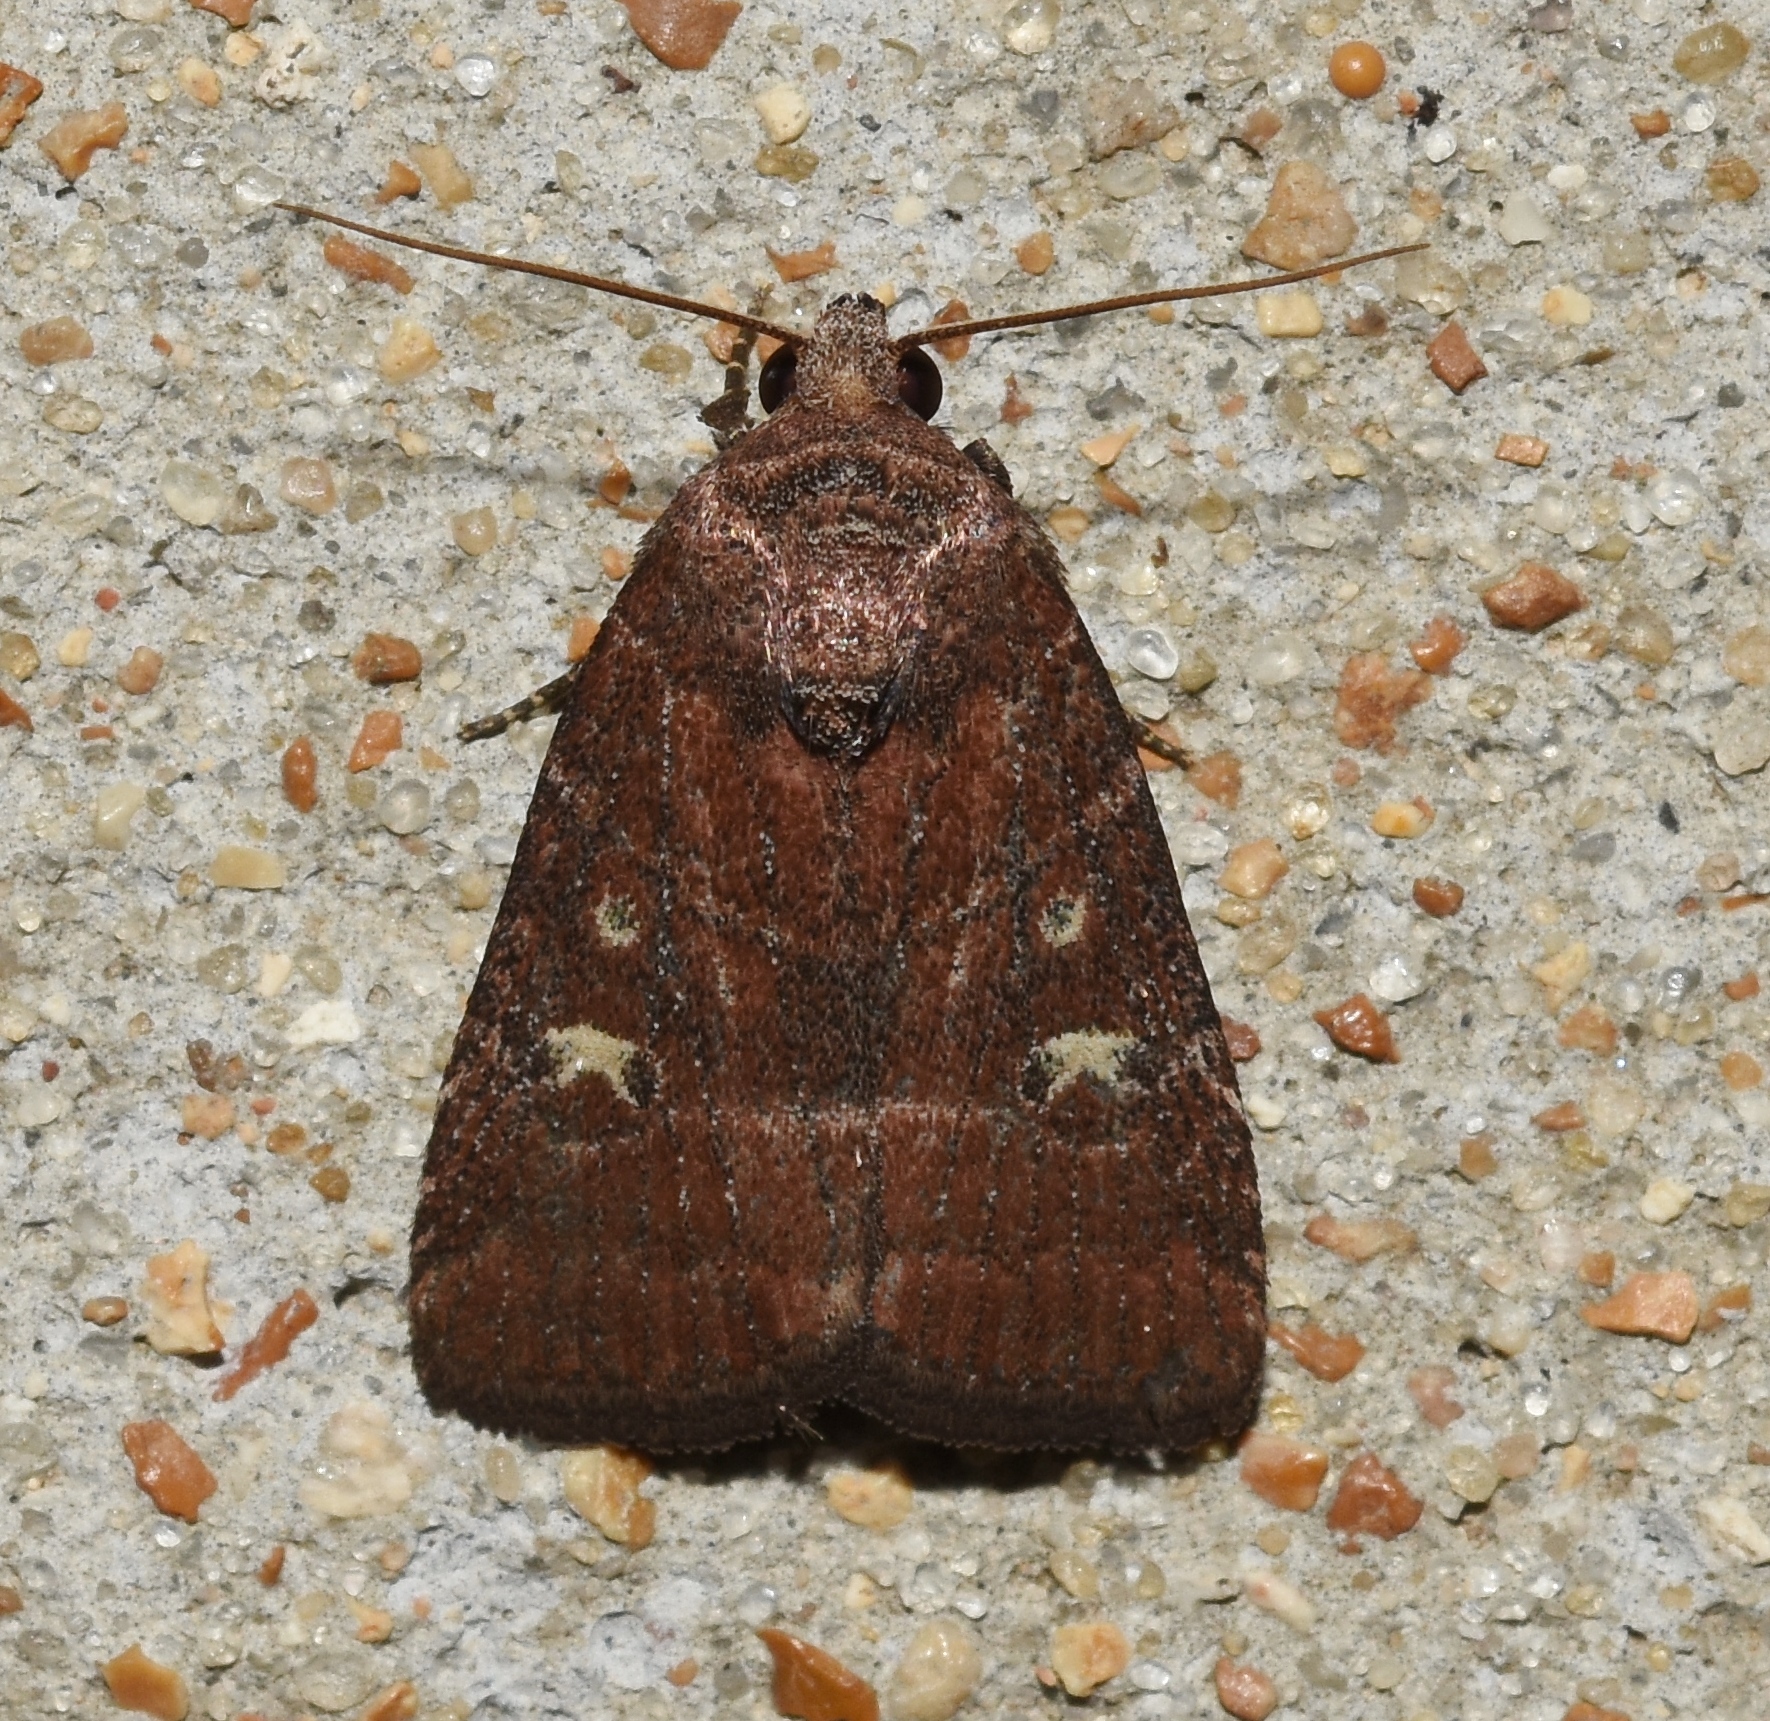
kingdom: Animalia
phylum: Arthropoda
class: Insecta
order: Lepidoptera
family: Noctuidae
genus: Elaphria
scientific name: Elaphria grata
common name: Grateful midget moth
